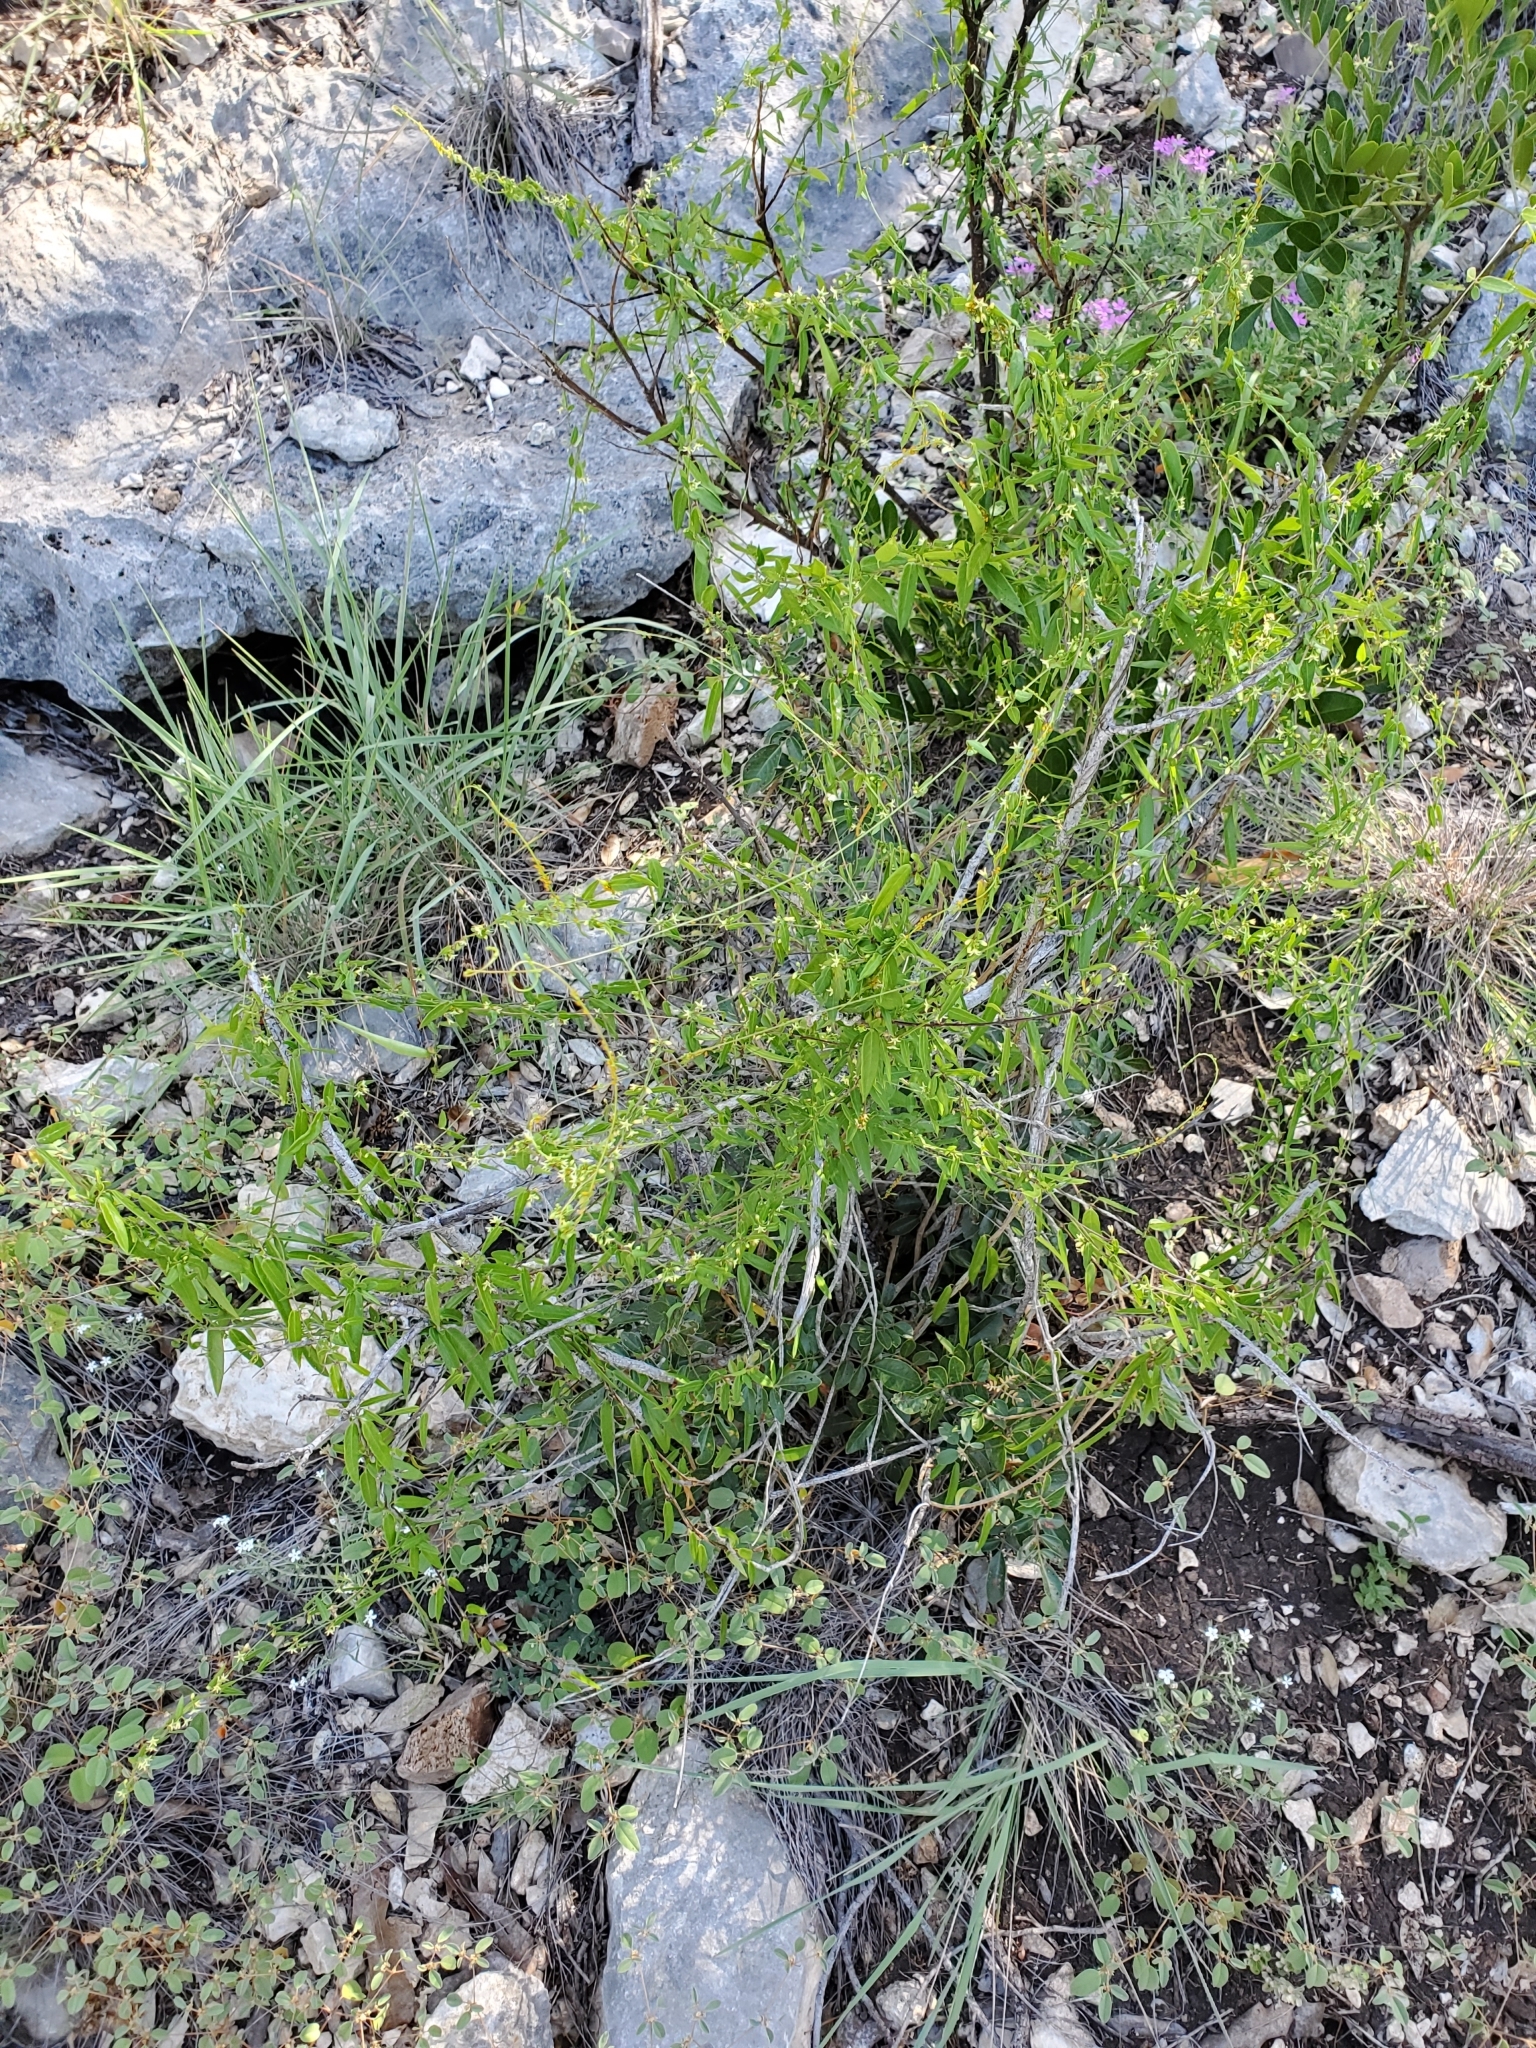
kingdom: Plantae
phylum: Tracheophyta
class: Magnoliopsida
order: Gentianales
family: Apocynaceae
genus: Metastelma
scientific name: Metastelma palmeri
